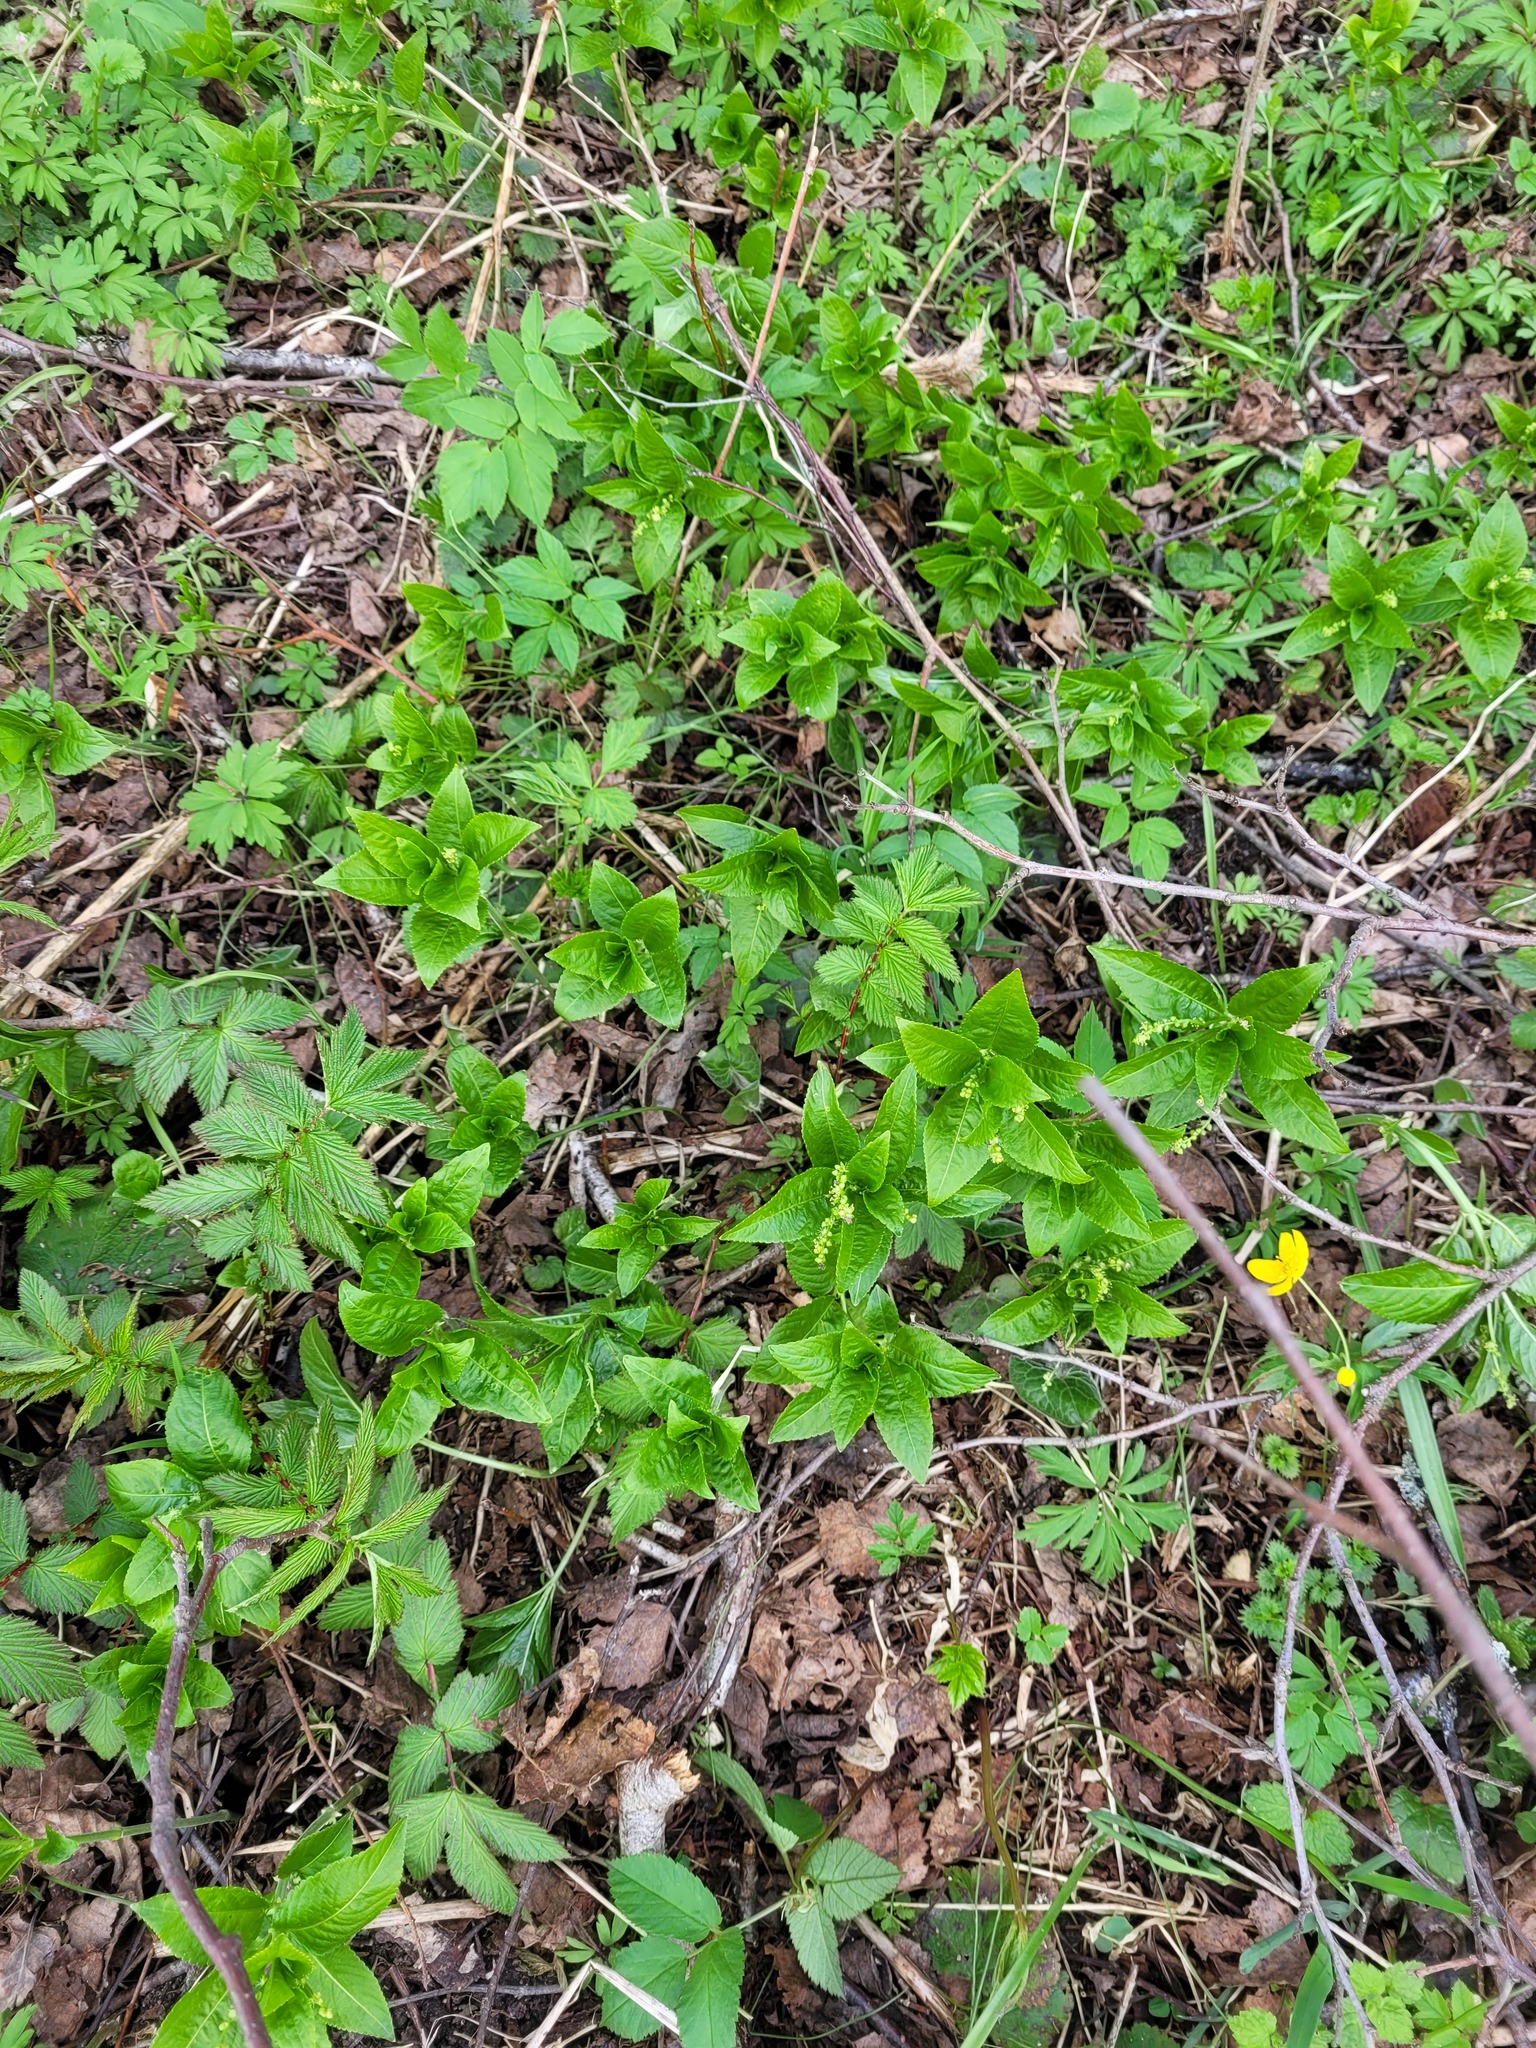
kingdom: Plantae
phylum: Tracheophyta
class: Magnoliopsida
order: Malpighiales
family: Euphorbiaceae
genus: Mercurialis
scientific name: Mercurialis perennis
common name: Dog mercury
